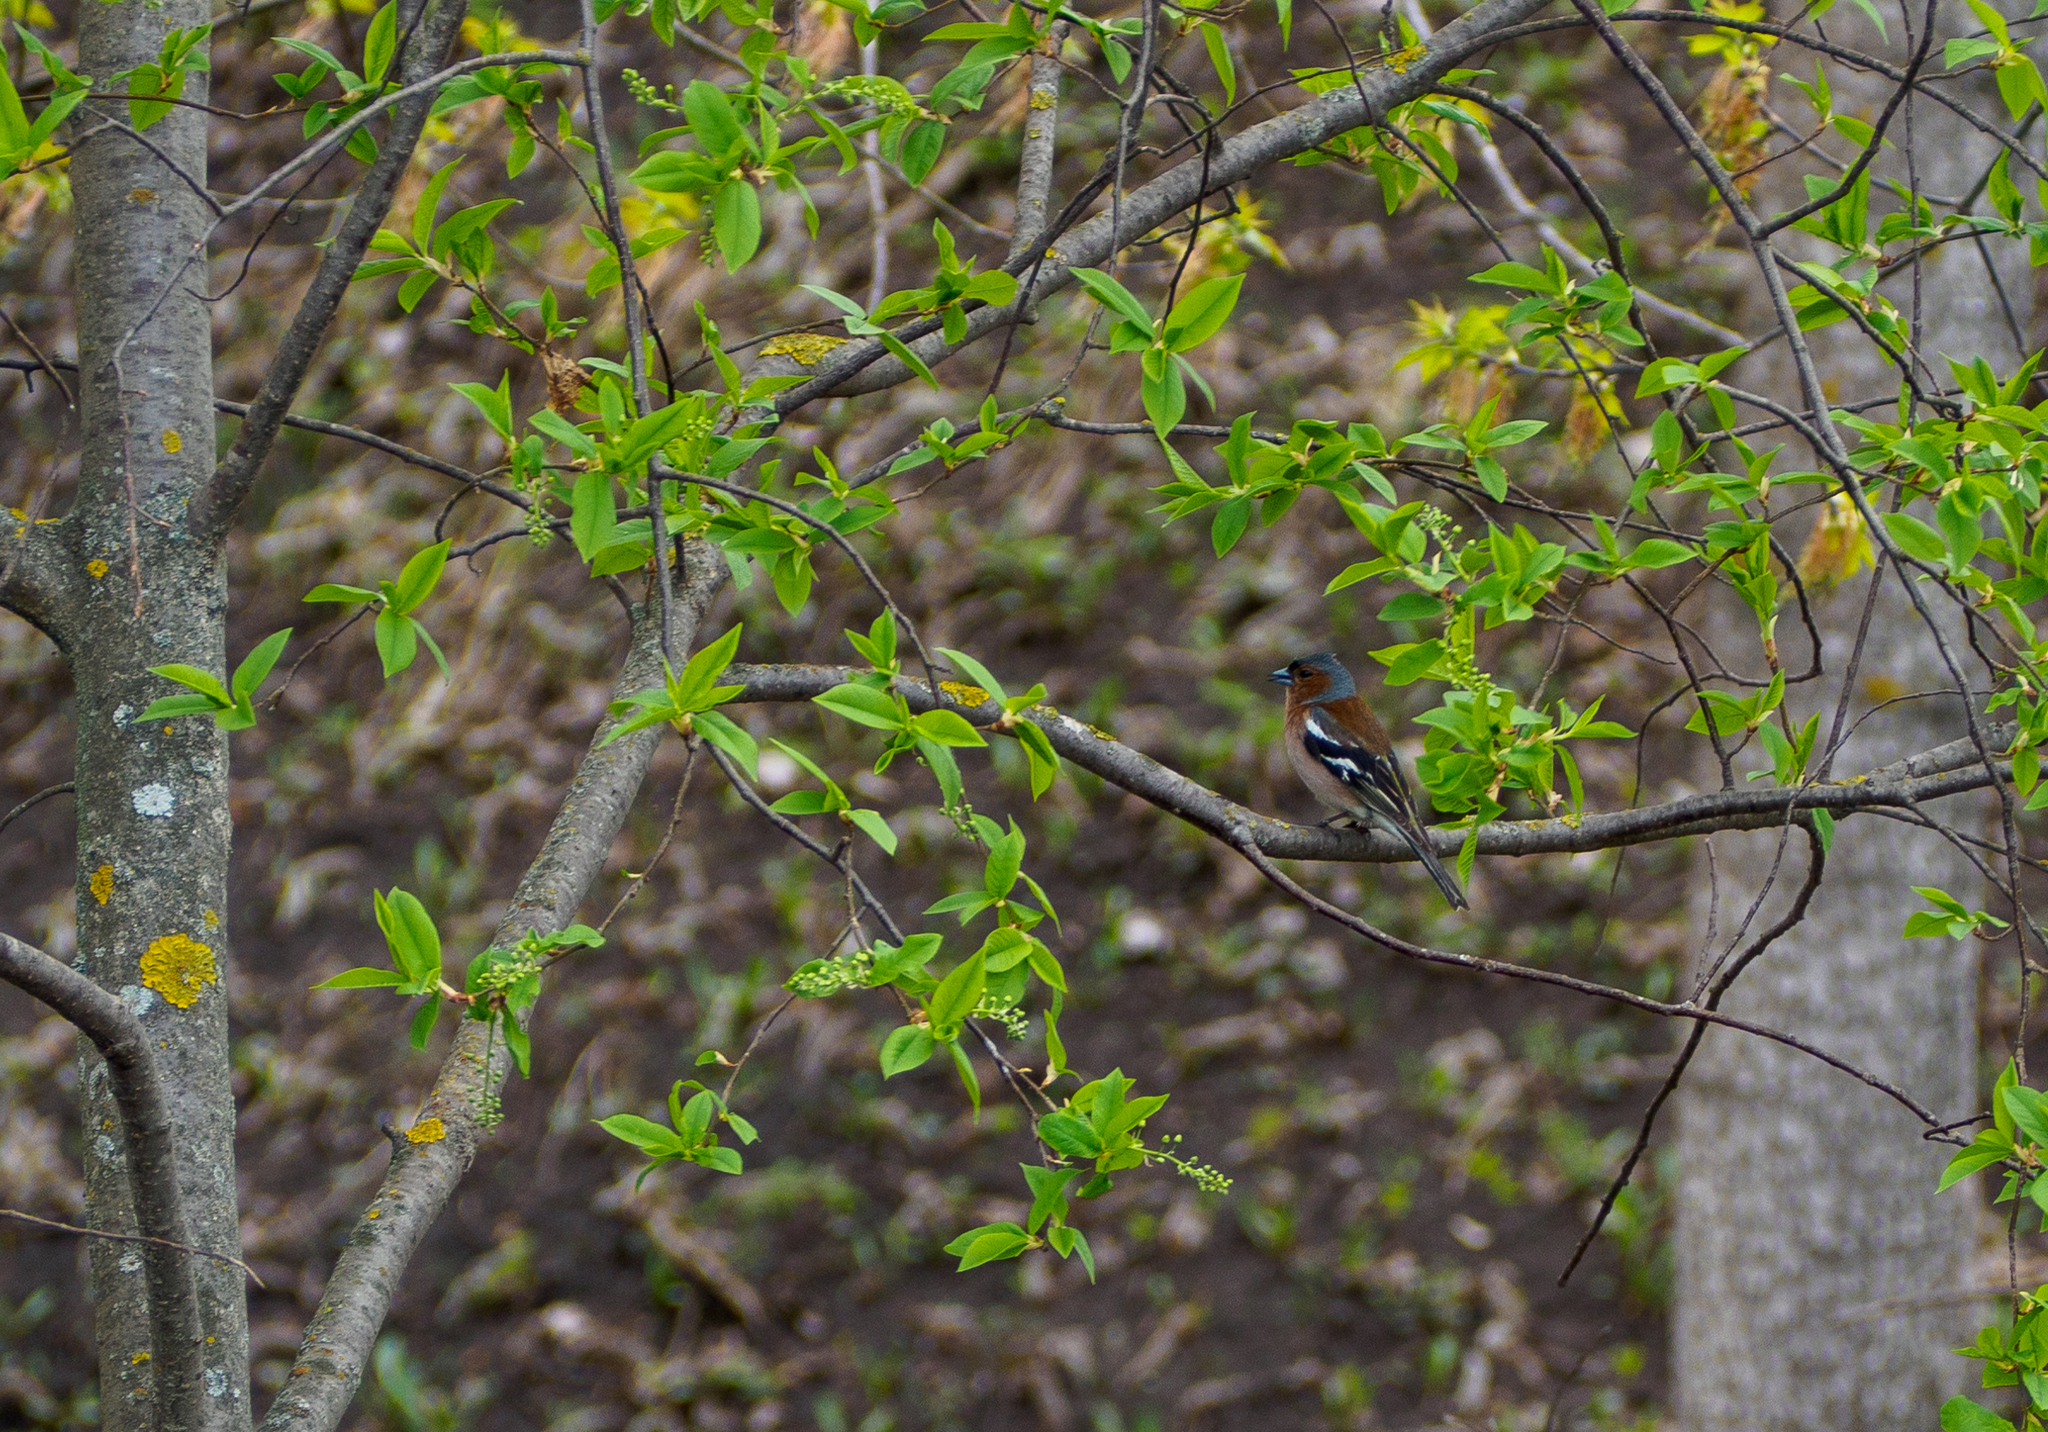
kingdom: Animalia
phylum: Chordata
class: Aves
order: Passeriformes
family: Fringillidae
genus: Fringilla
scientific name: Fringilla coelebs
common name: Common chaffinch
